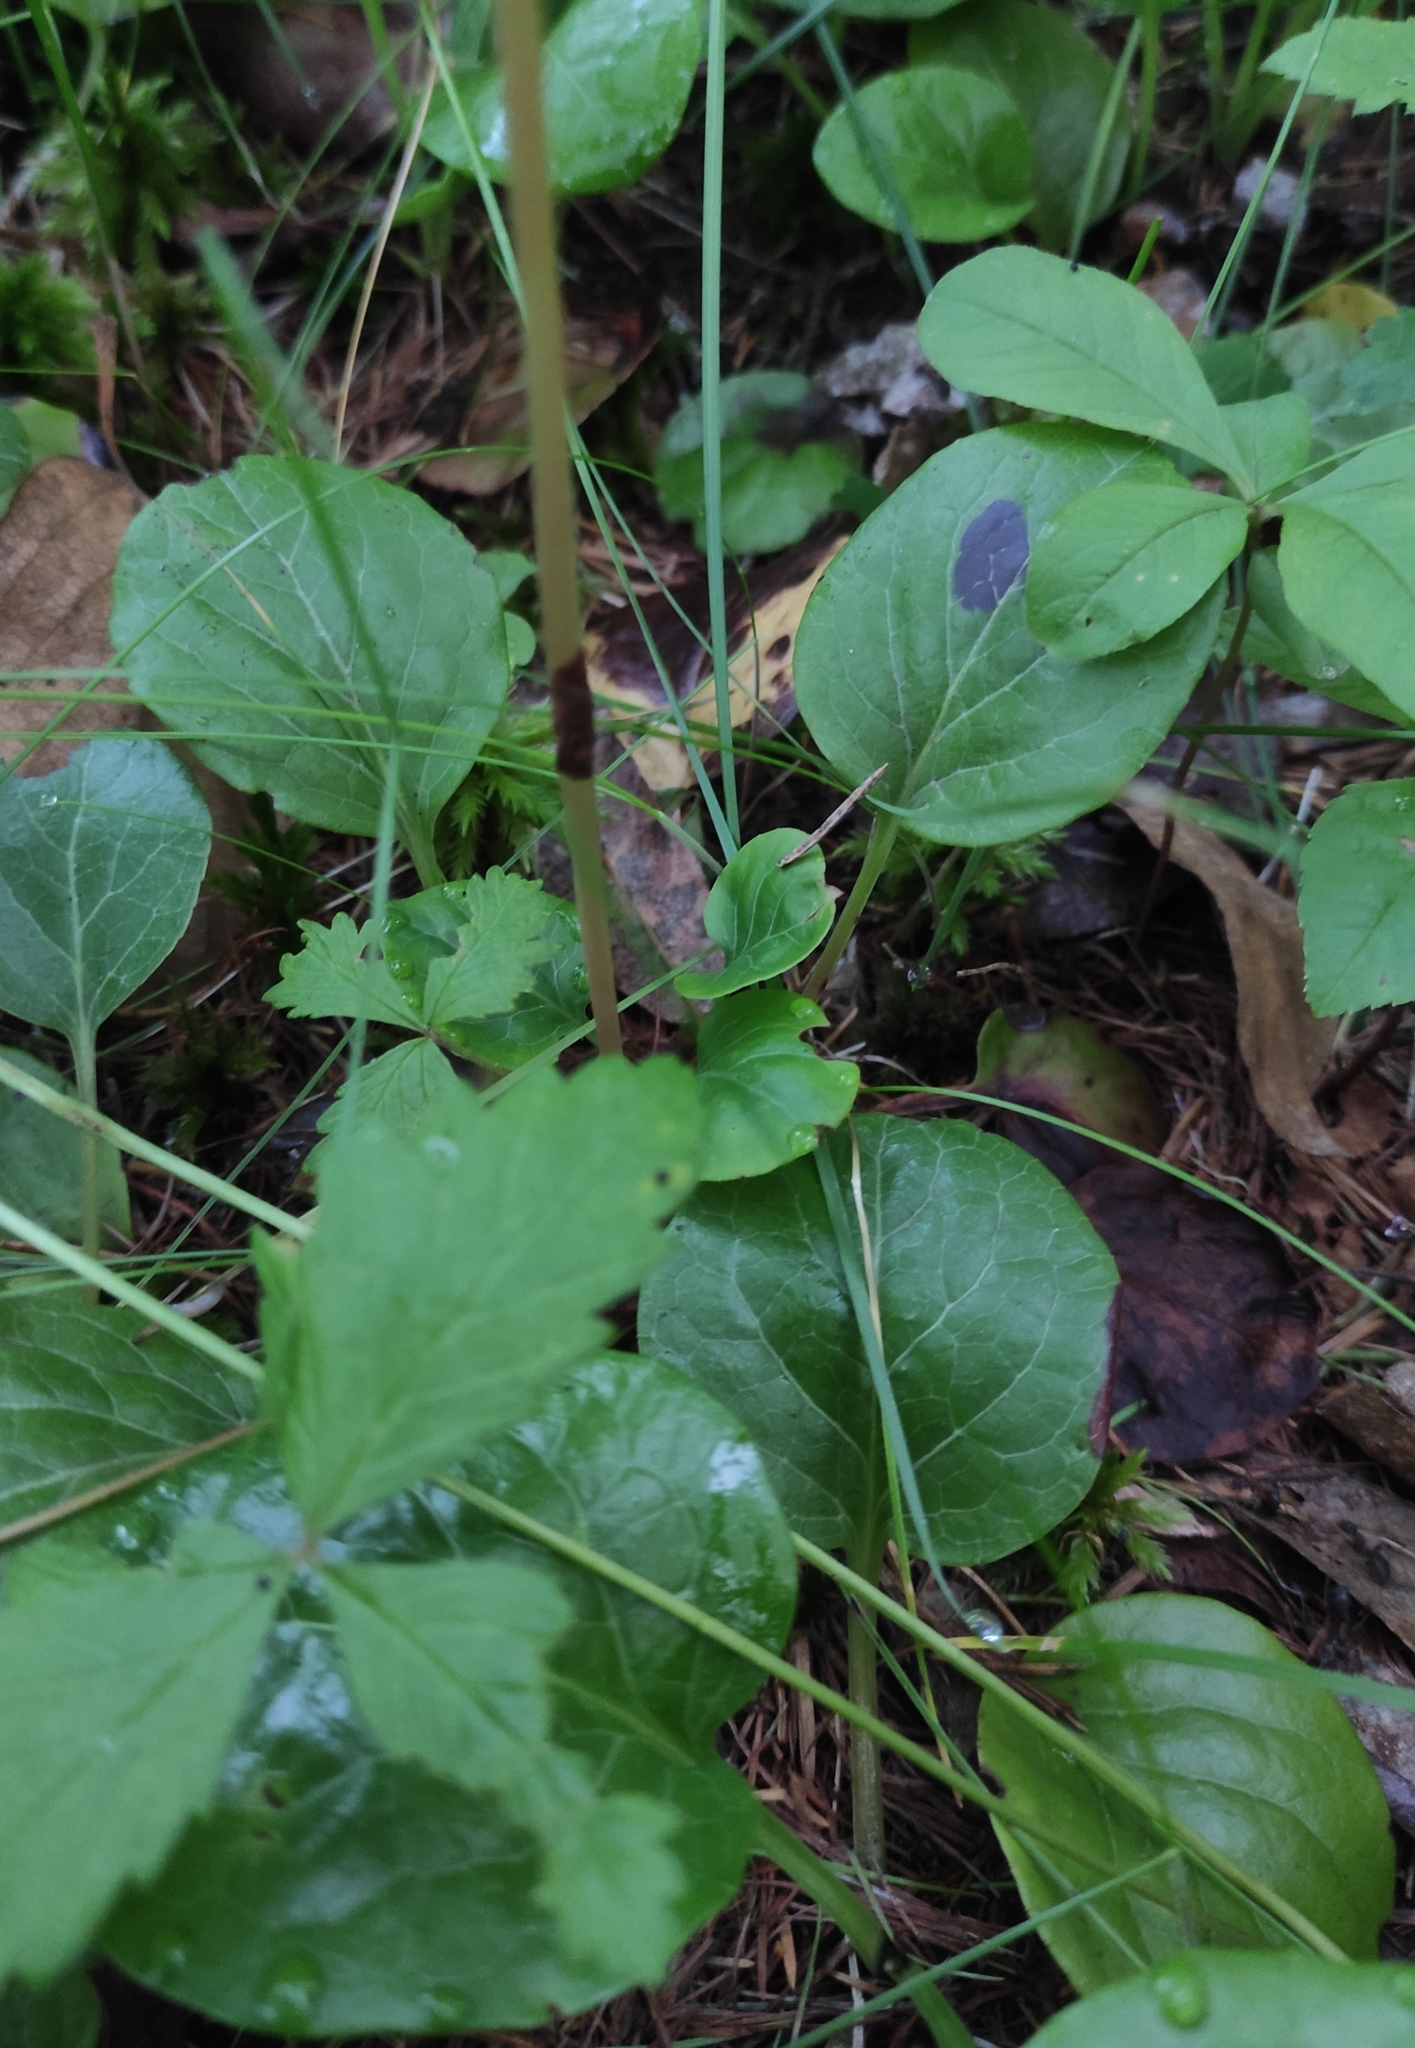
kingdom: Plantae
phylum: Tracheophyta
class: Magnoliopsida
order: Ericales
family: Ericaceae
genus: Pyrola
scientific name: Pyrola rotundifolia
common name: Round-leaved wintergreen
